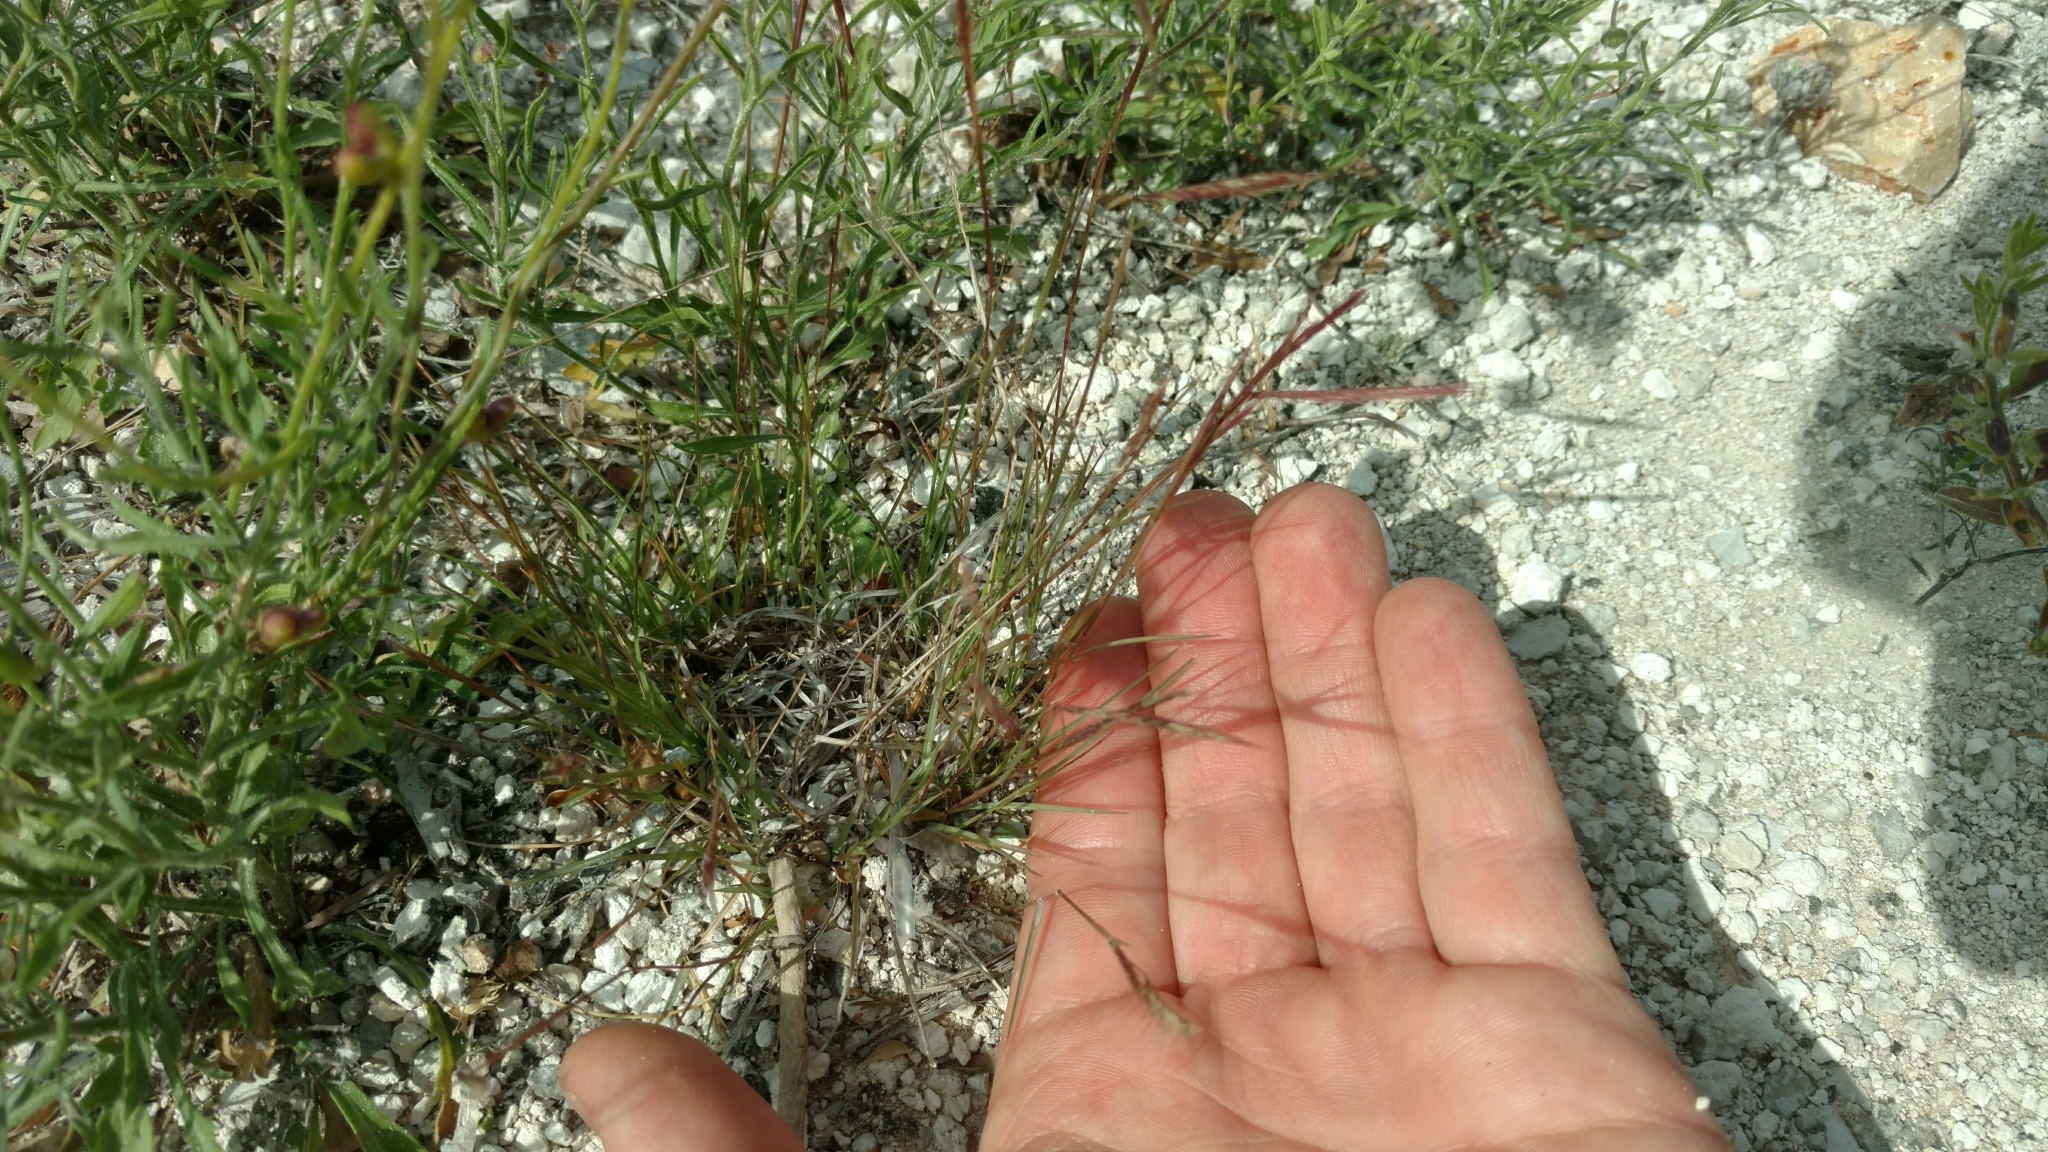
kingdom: Plantae
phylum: Tracheophyta
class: Liliopsida
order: Poales
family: Poaceae
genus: Bouteloua
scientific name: Bouteloua trifida
